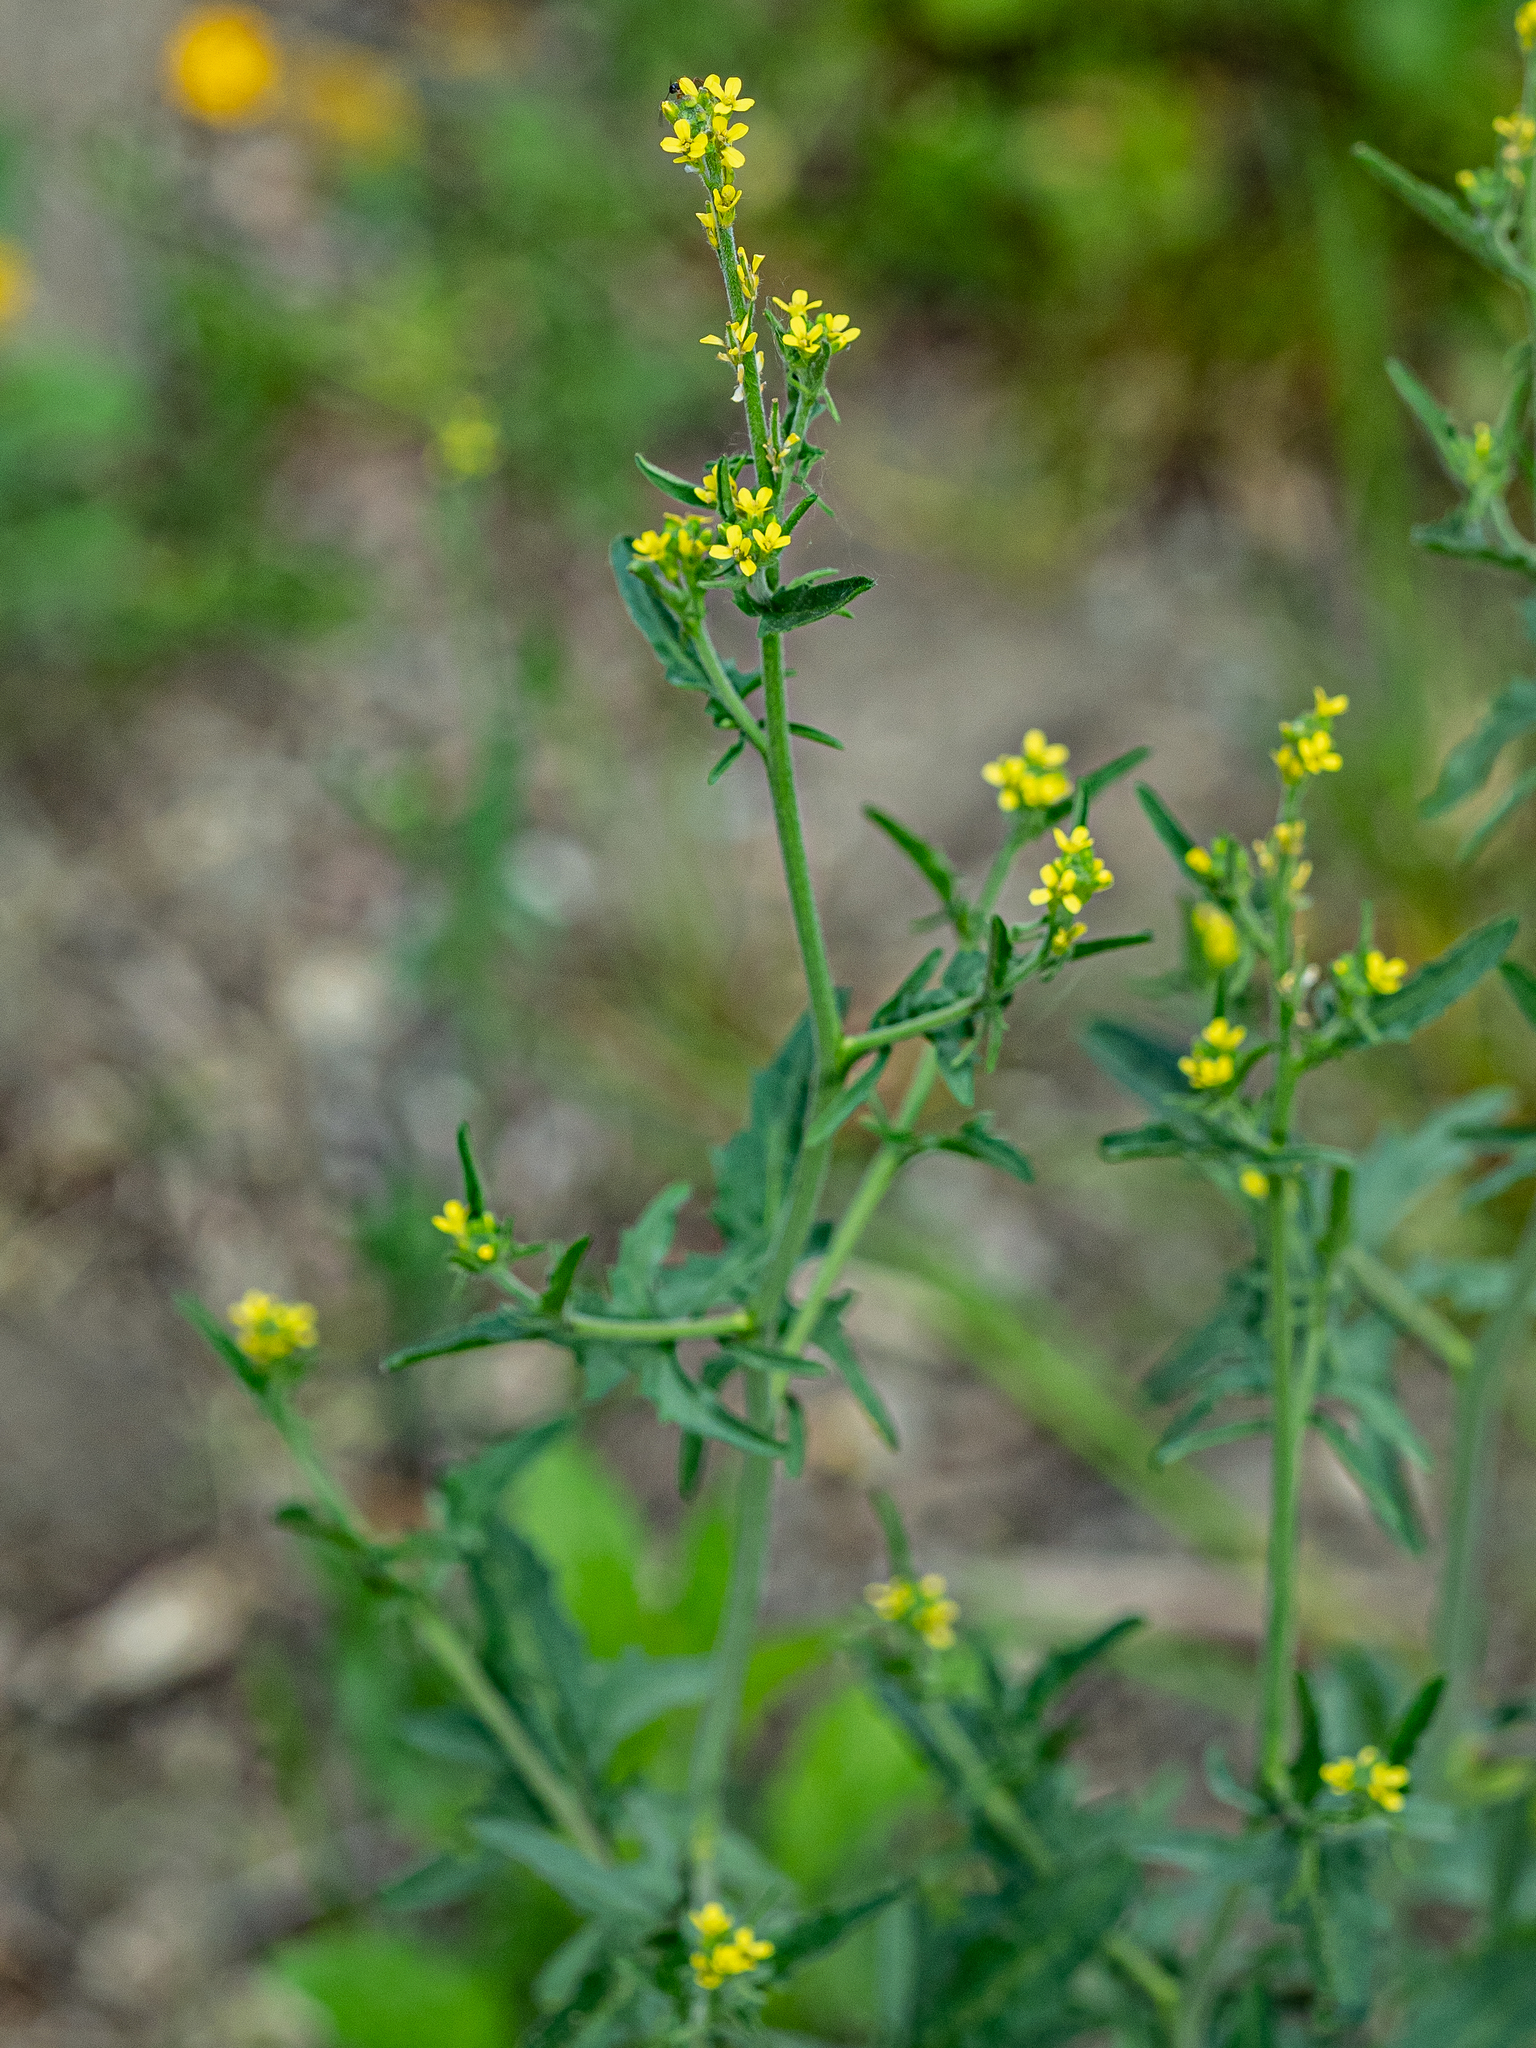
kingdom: Plantae
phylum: Tracheophyta
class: Magnoliopsida
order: Brassicales
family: Brassicaceae
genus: Sisymbrium
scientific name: Sisymbrium officinale
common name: Hedge mustard
